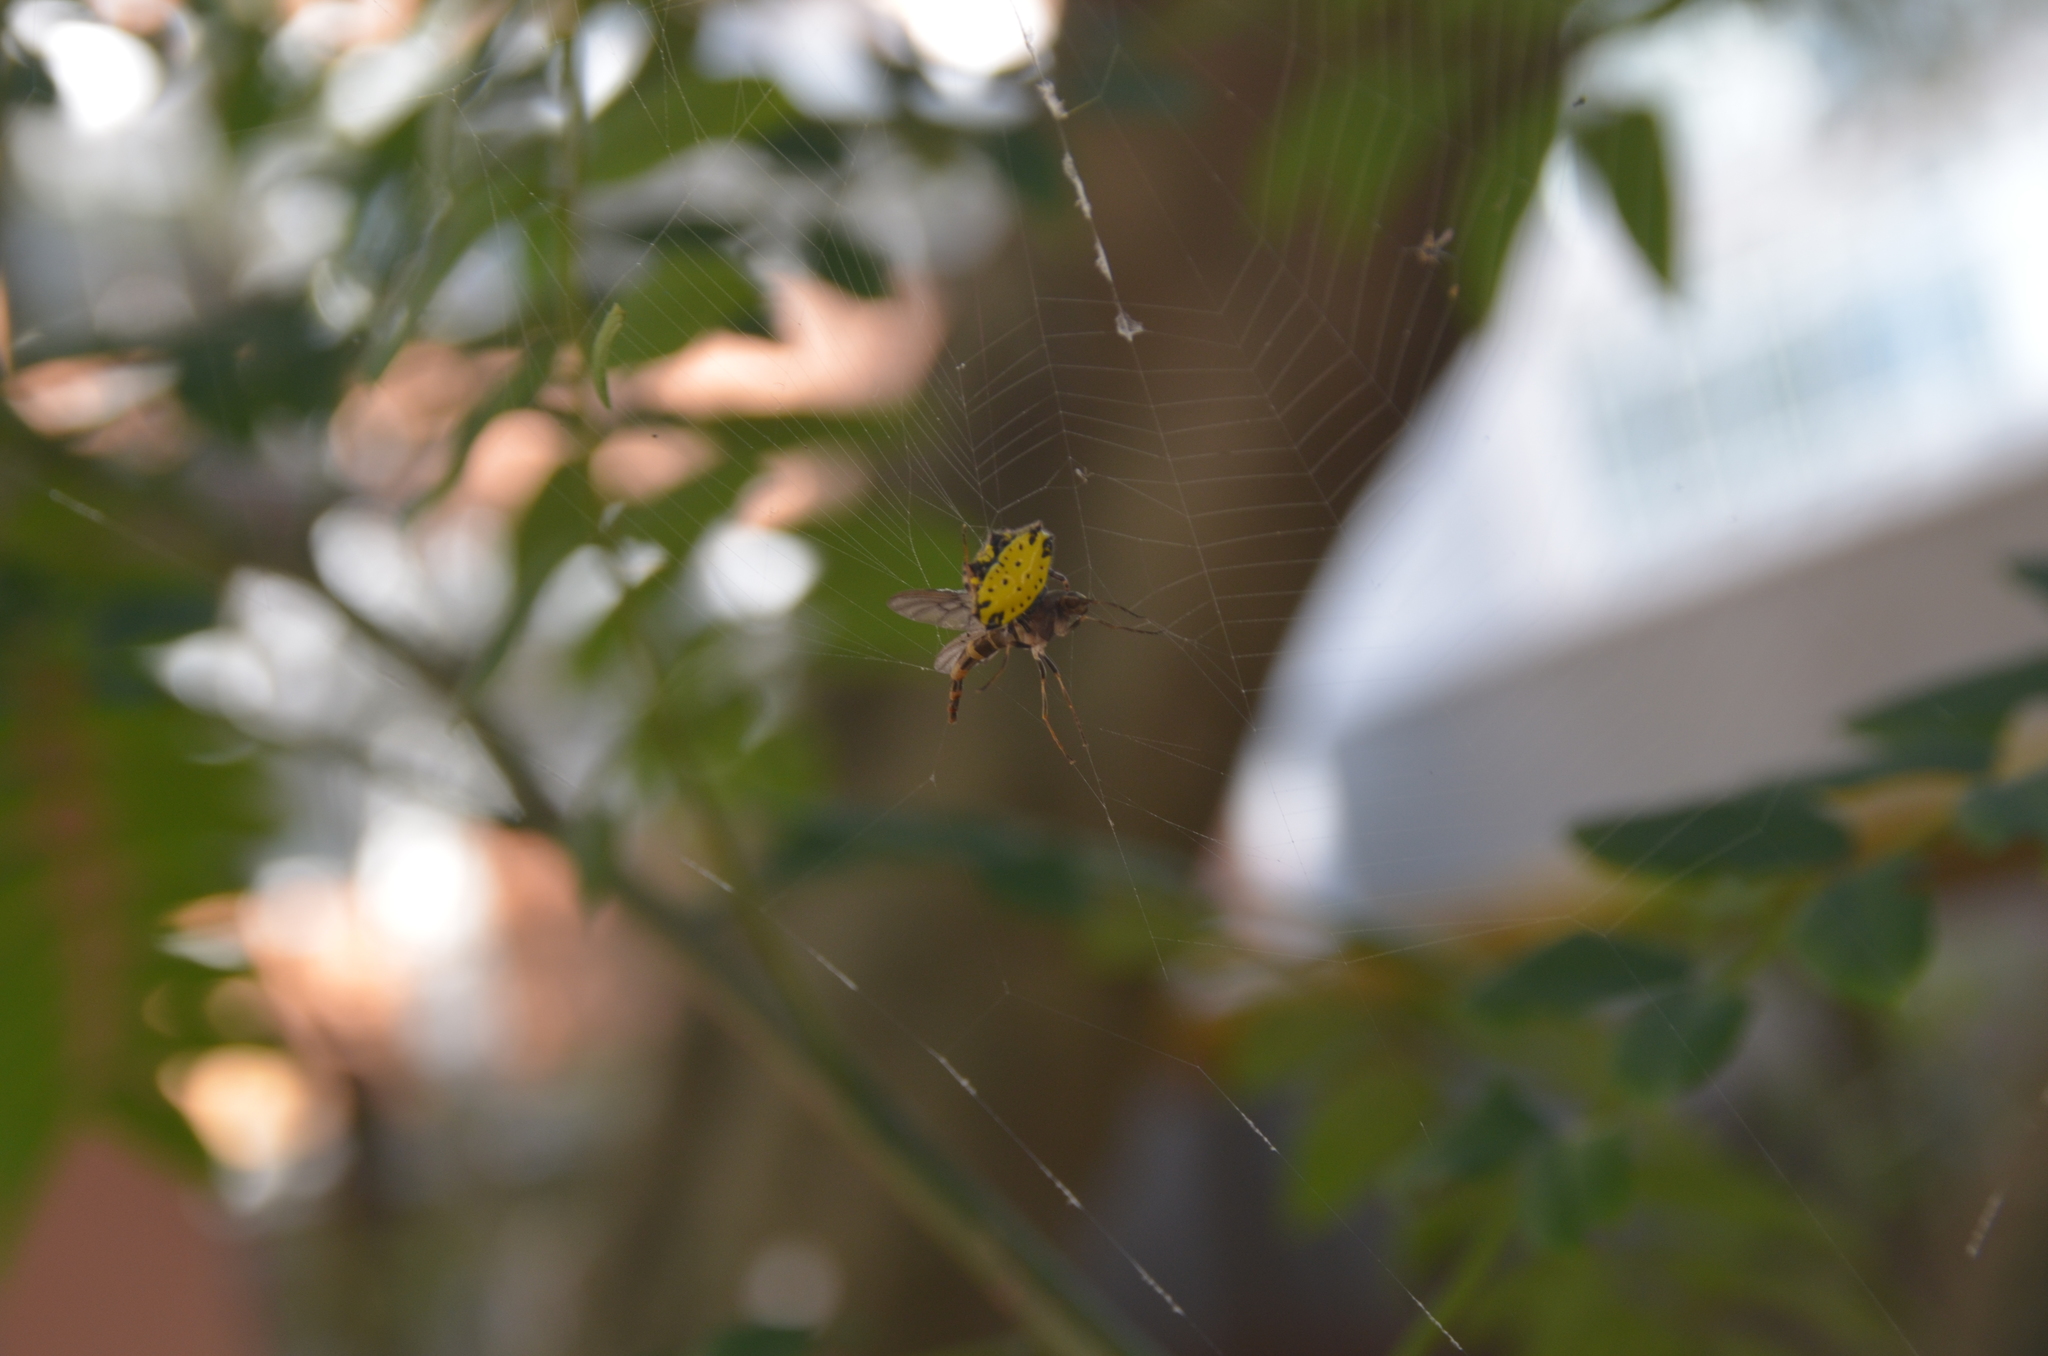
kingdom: Animalia
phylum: Arthropoda
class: Arachnida
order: Araneae
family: Araneidae
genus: Gasteracantha
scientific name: Gasteracantha cancriformis
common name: Orb weavers
